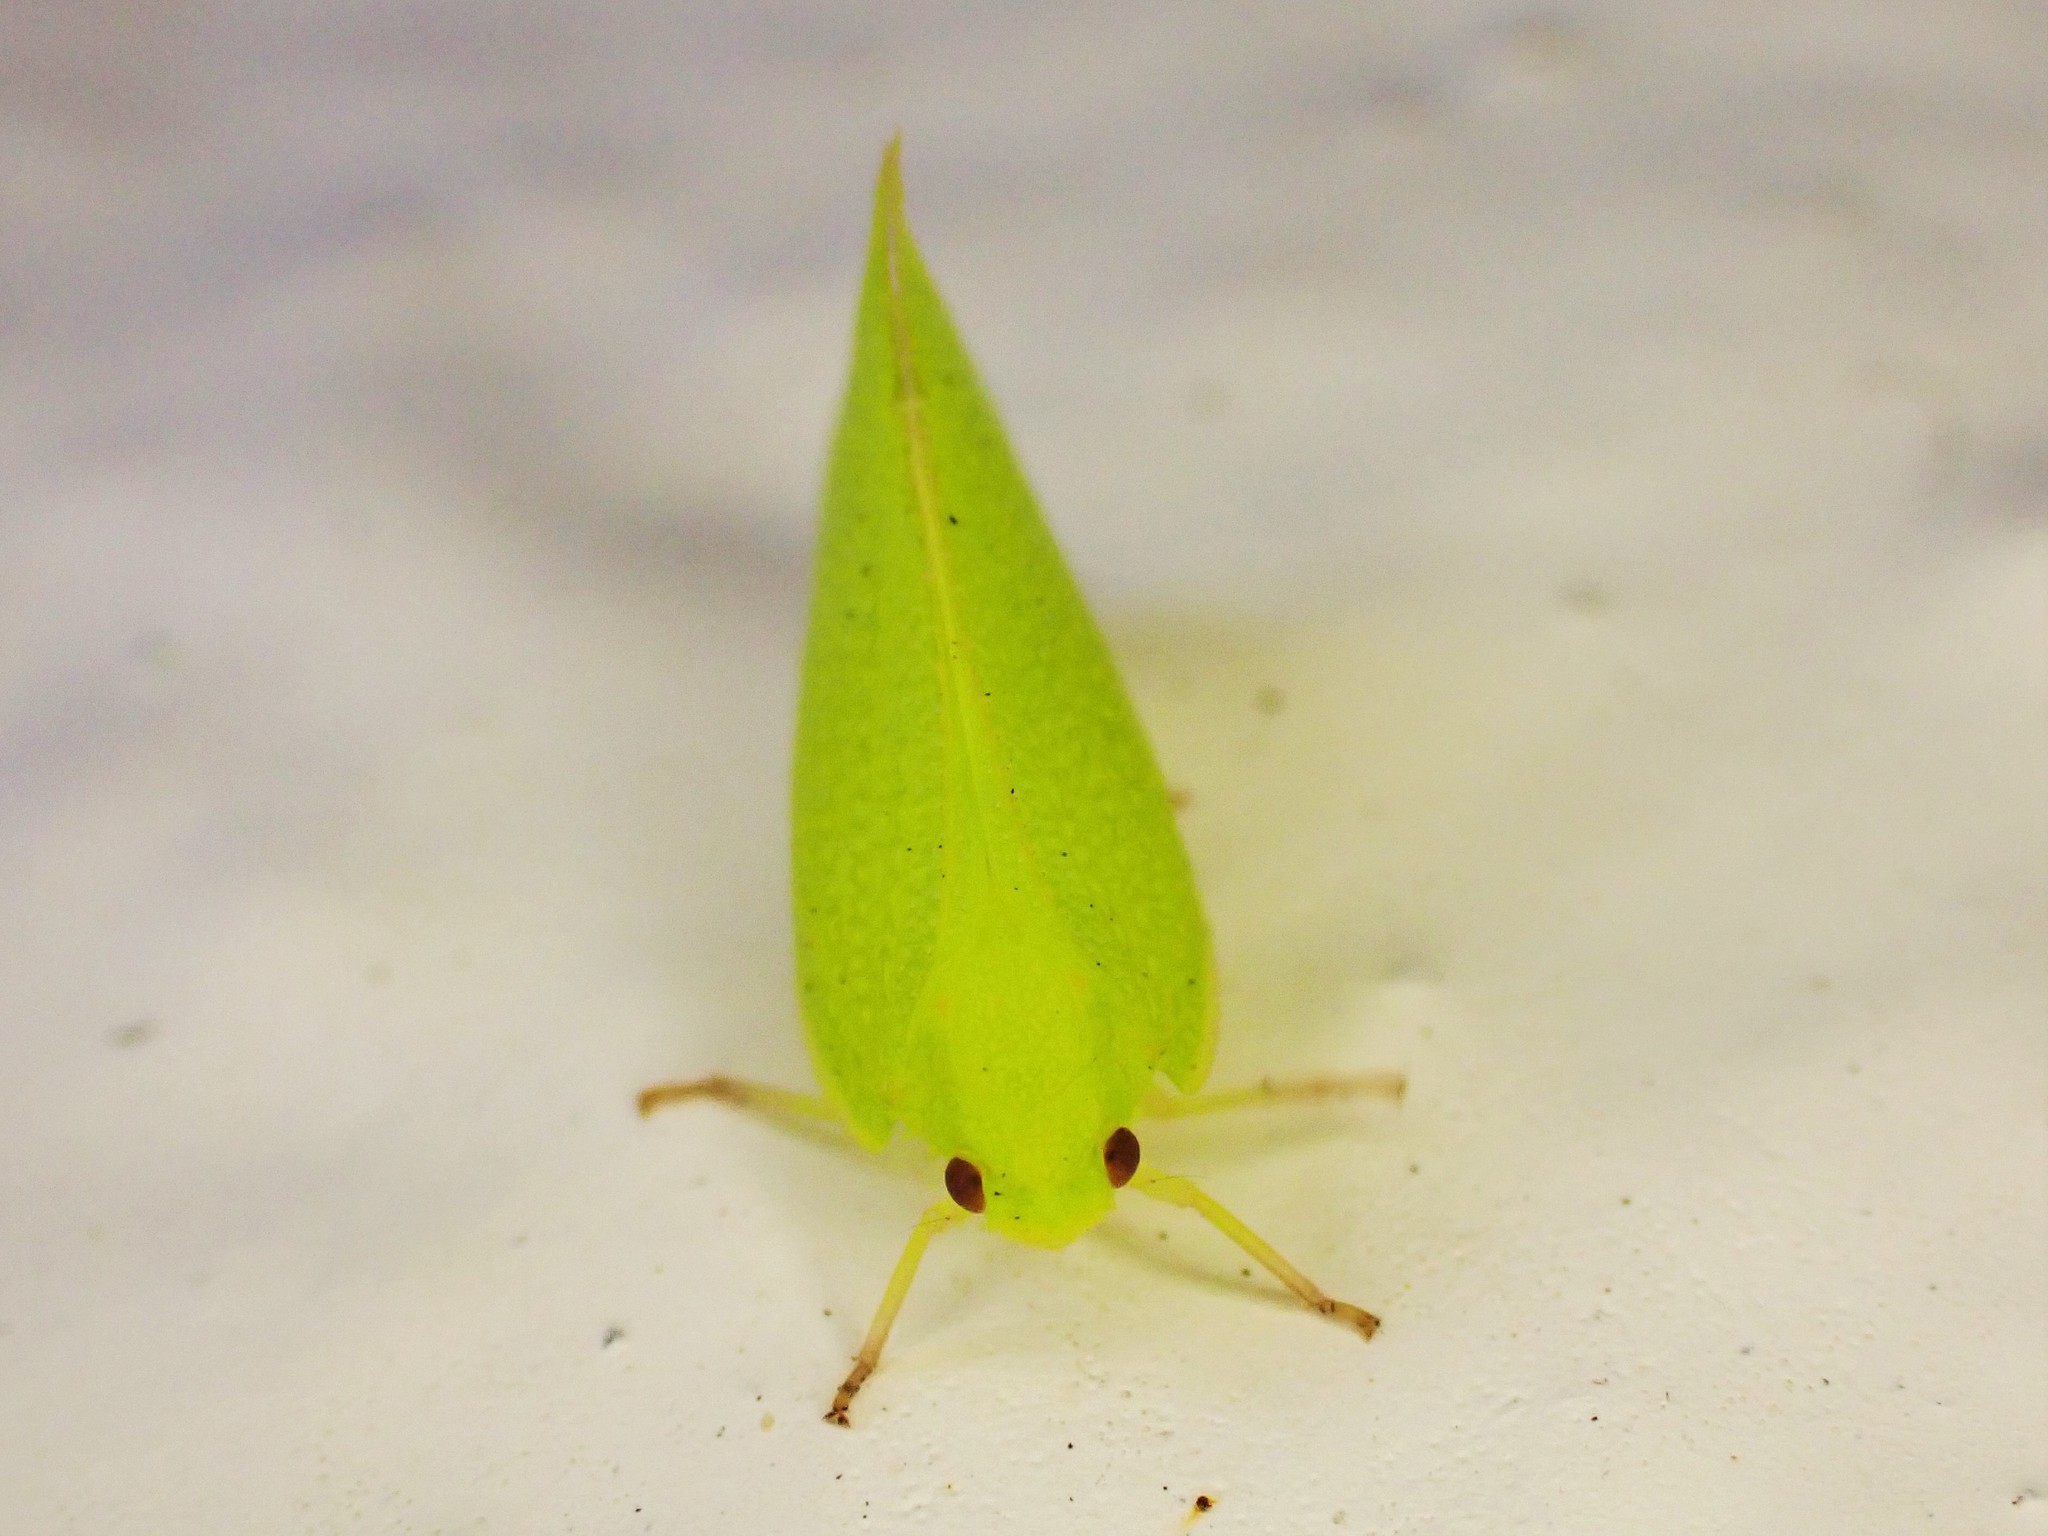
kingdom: Animalia
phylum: Arthropoda
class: Insecta
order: Hemiptera
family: Flatidae
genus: Siphanta
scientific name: Siphanta acuta
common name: Torpedo bug
